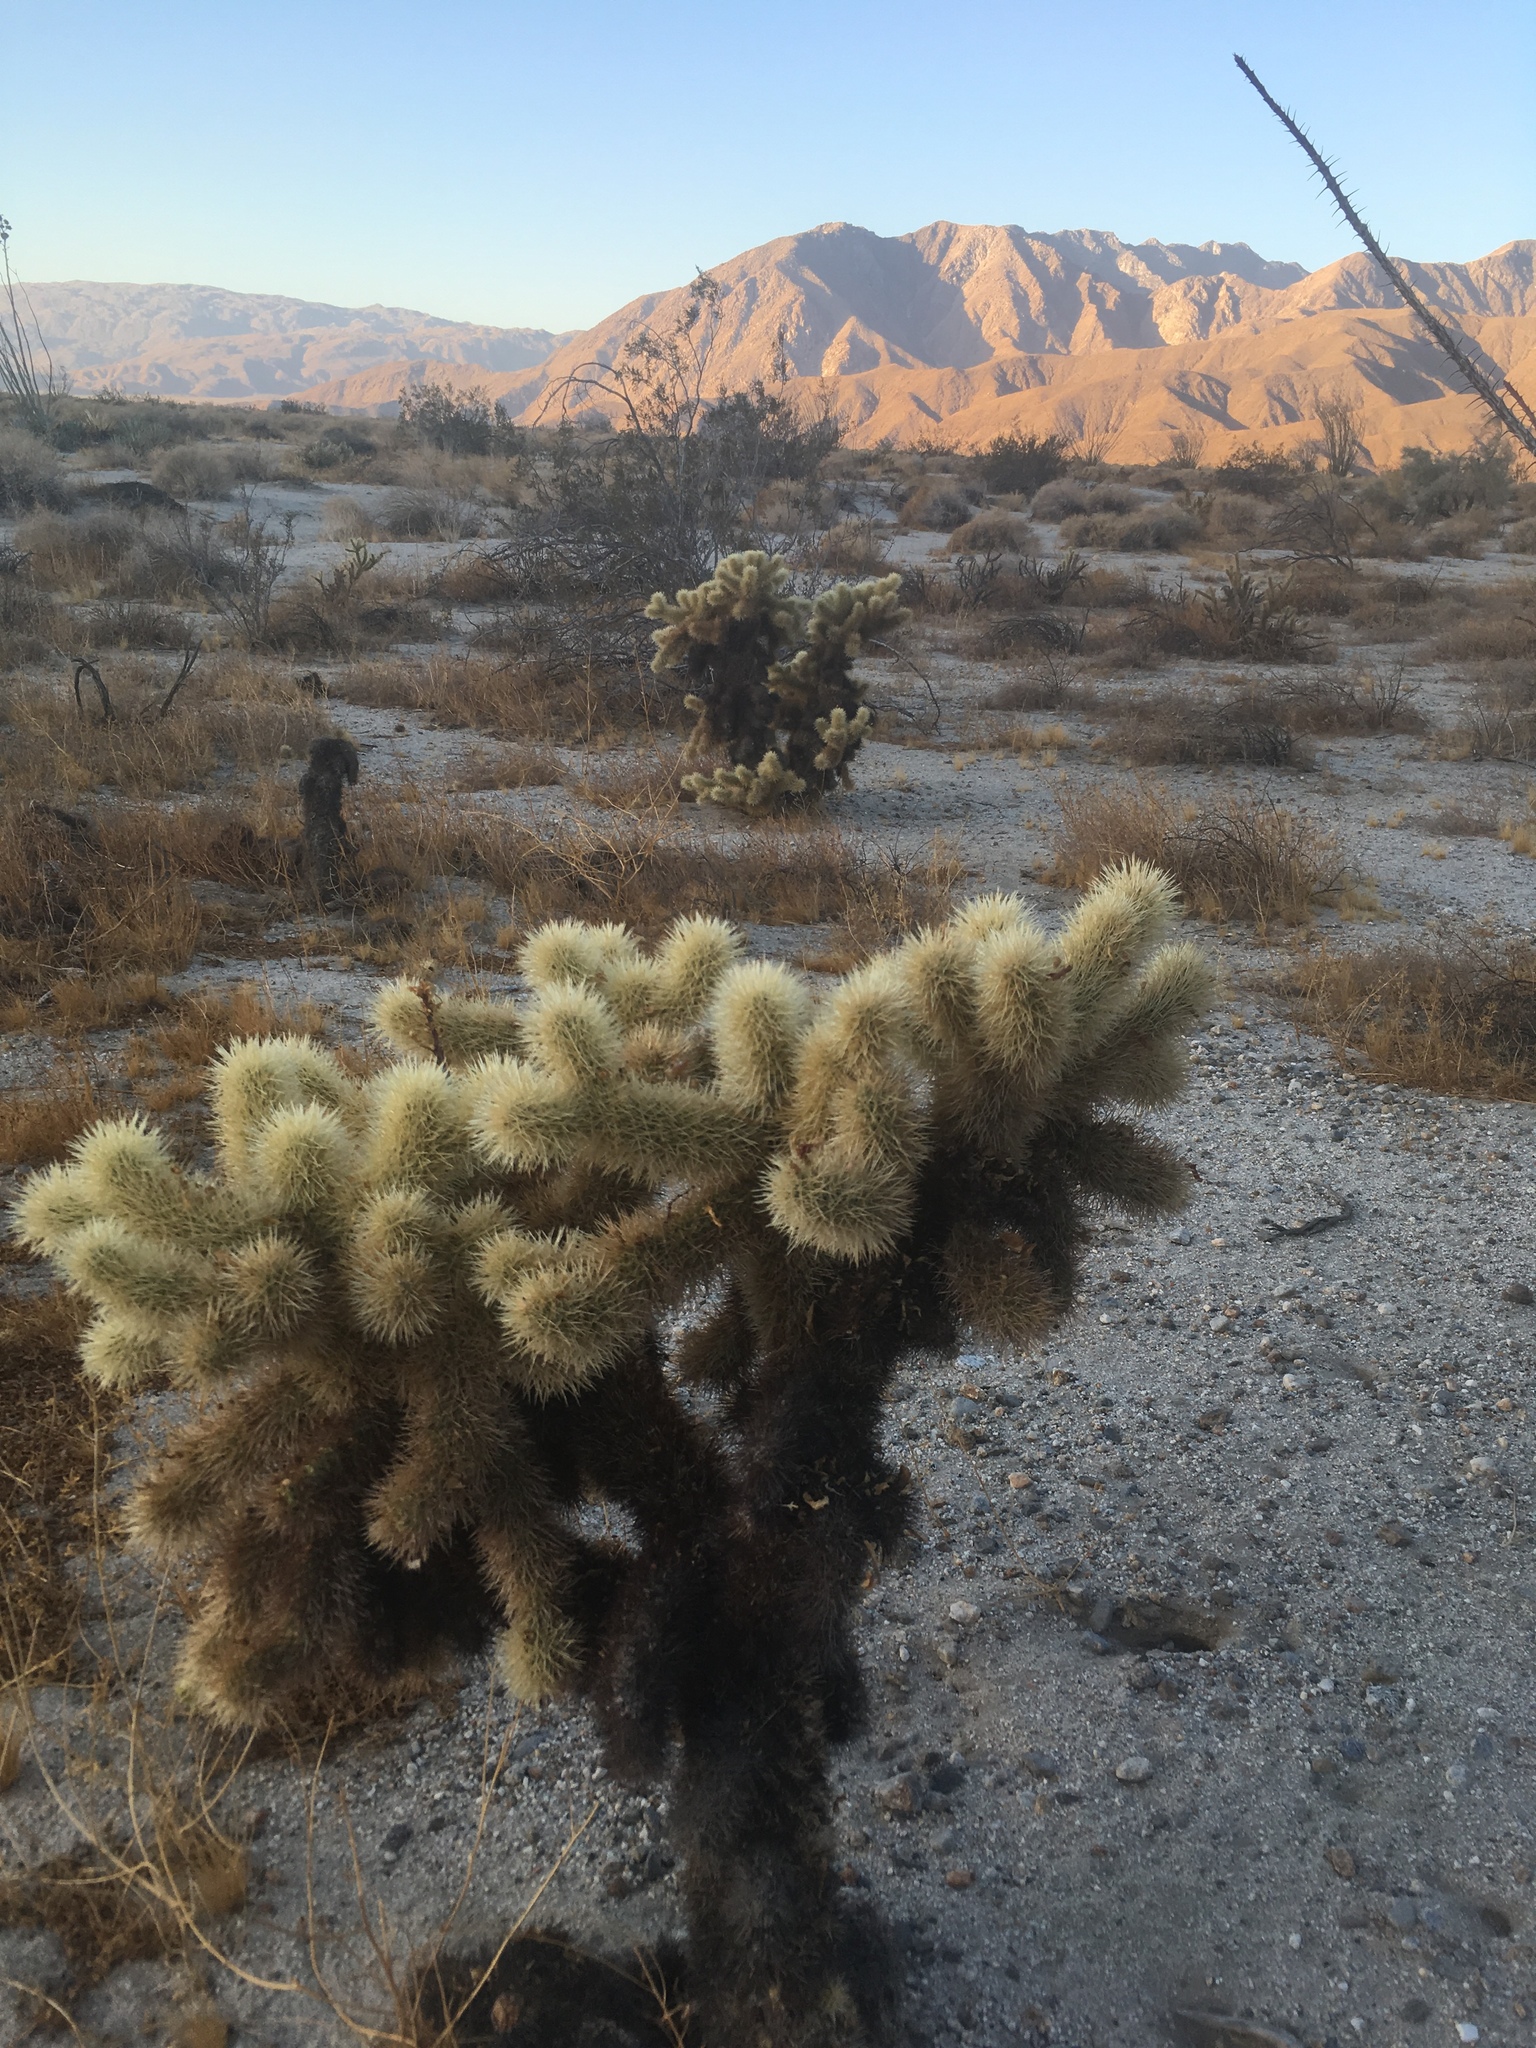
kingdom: Plantae
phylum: Tracheophyta
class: Magnoliopsida
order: Caryophyllales
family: Cactaceae
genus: Cylindropuntia
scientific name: Cylindropuntia fosbergii
